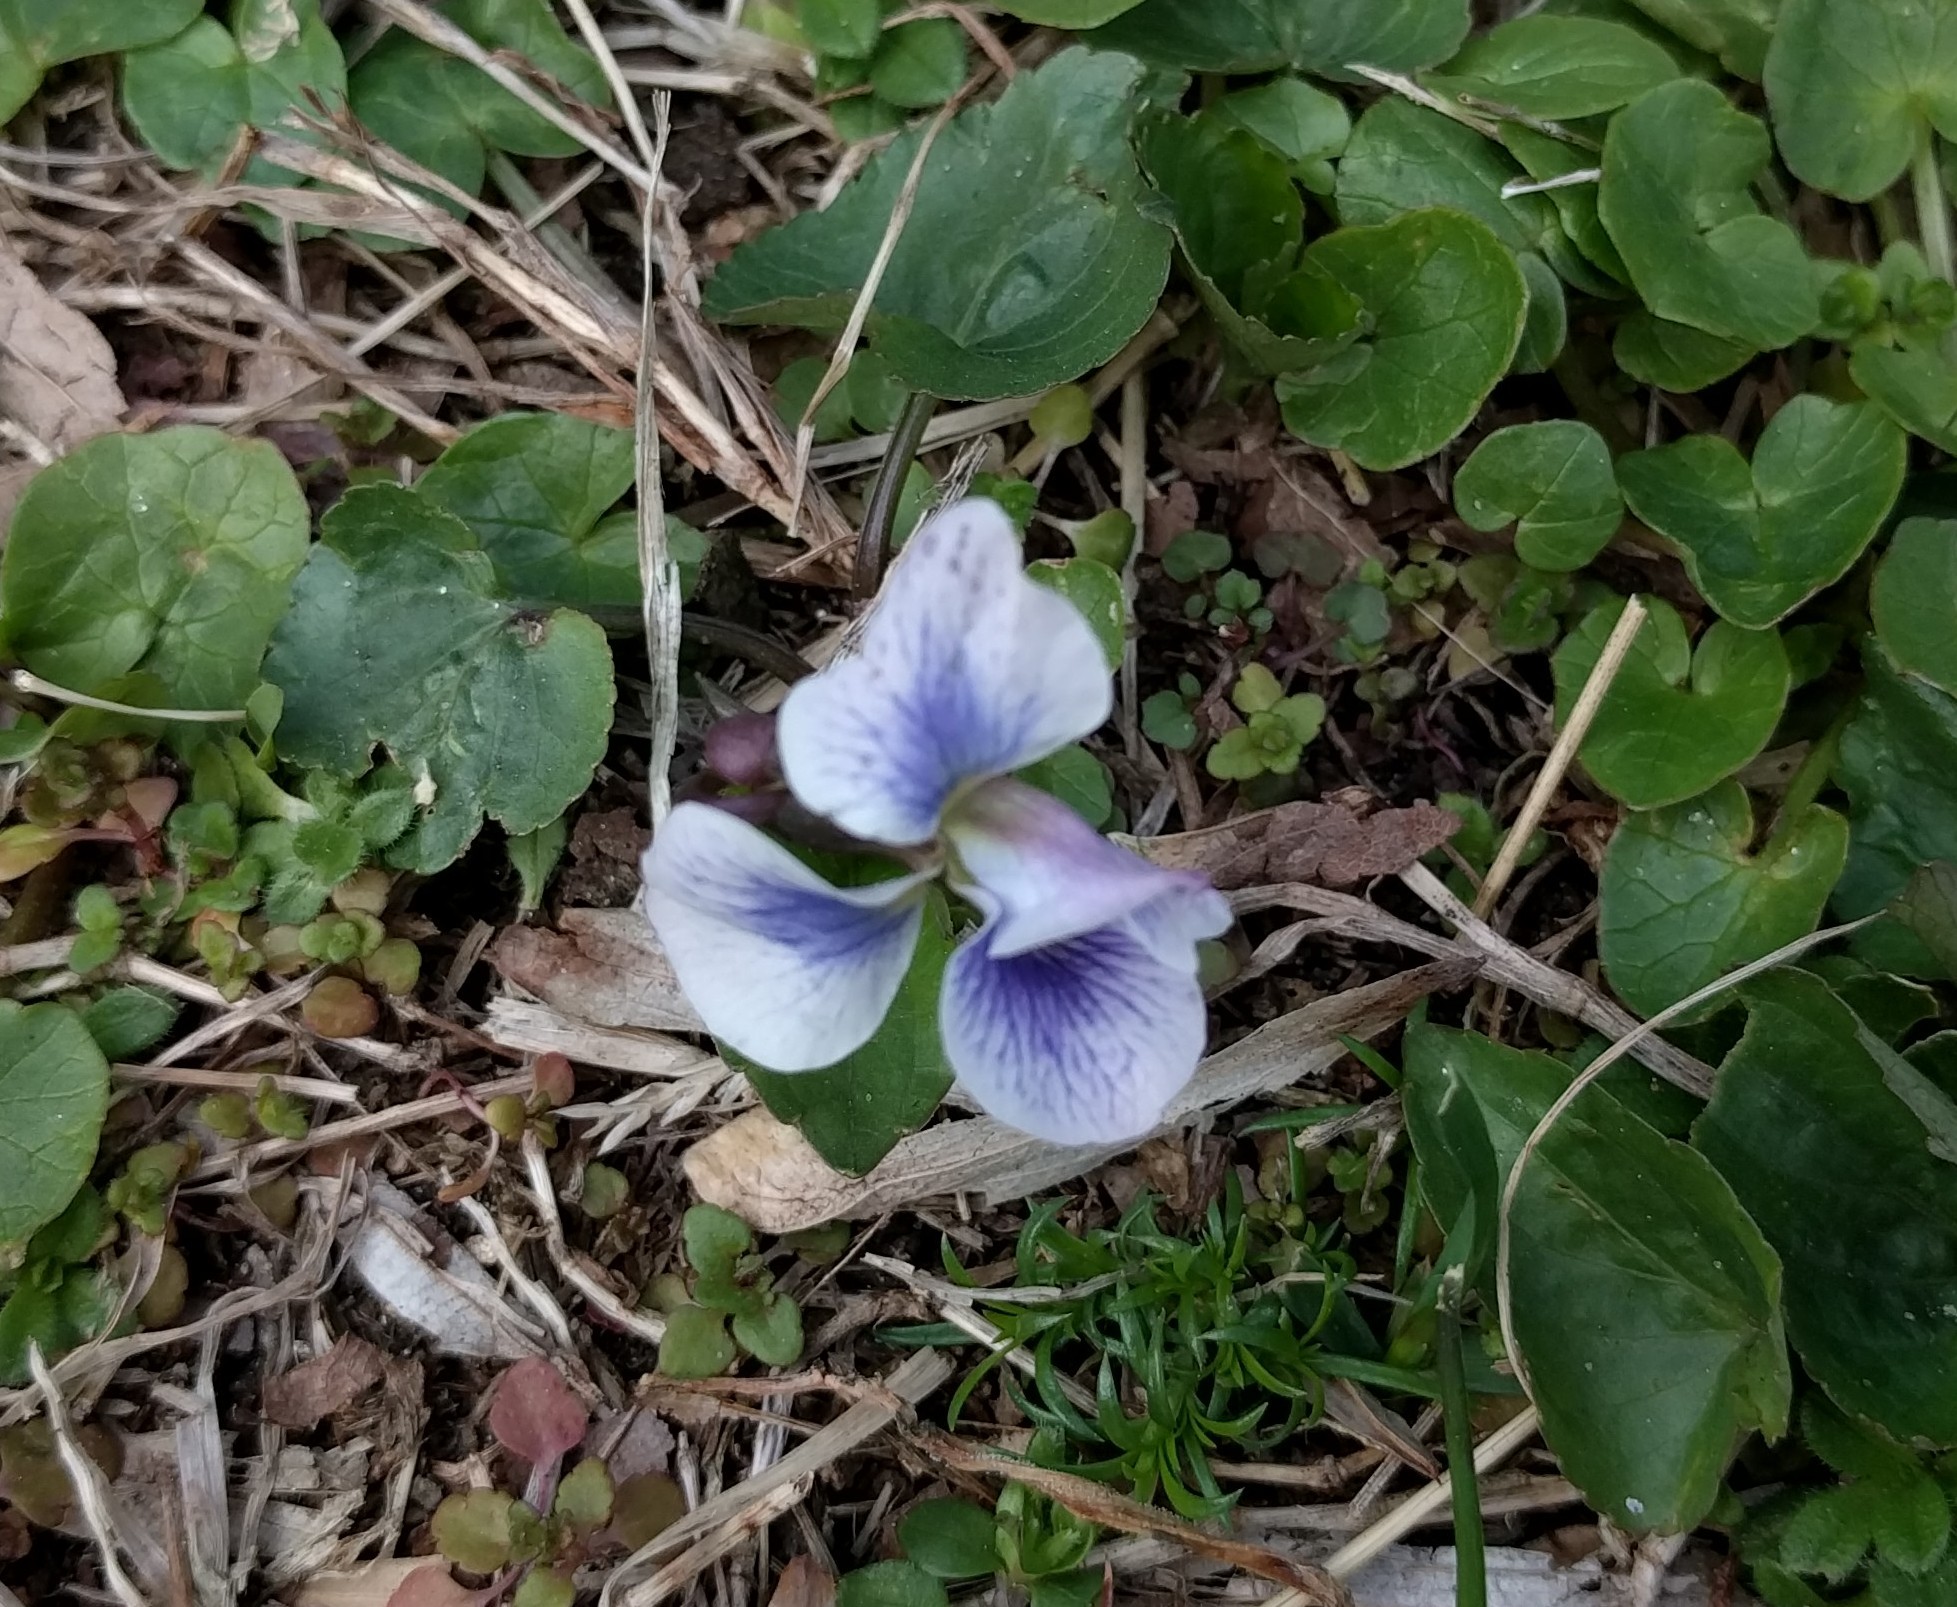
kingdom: Plantae
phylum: Tracheophyta
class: Magnoliopsida
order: Malpighiales
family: Violaceae
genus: Viola
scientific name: Viola sororia
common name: Dooryard violet
